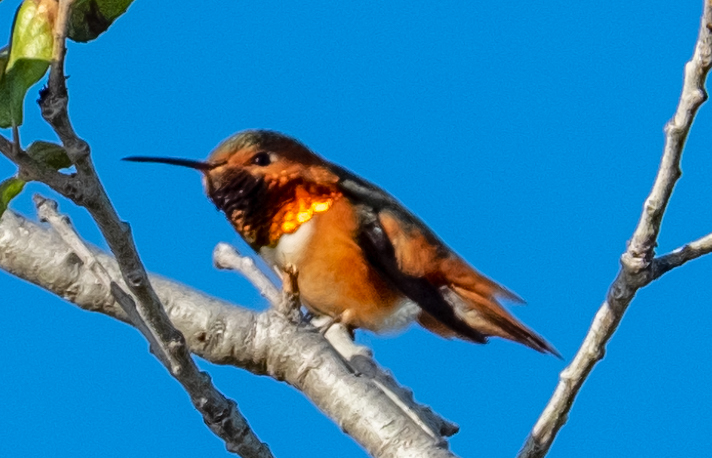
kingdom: Animalia
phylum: Chordata
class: Aves
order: Apodiformes
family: Trochilidae
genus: Selasphorus
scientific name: Selasphorus sasin
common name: Allen's hummingbird
